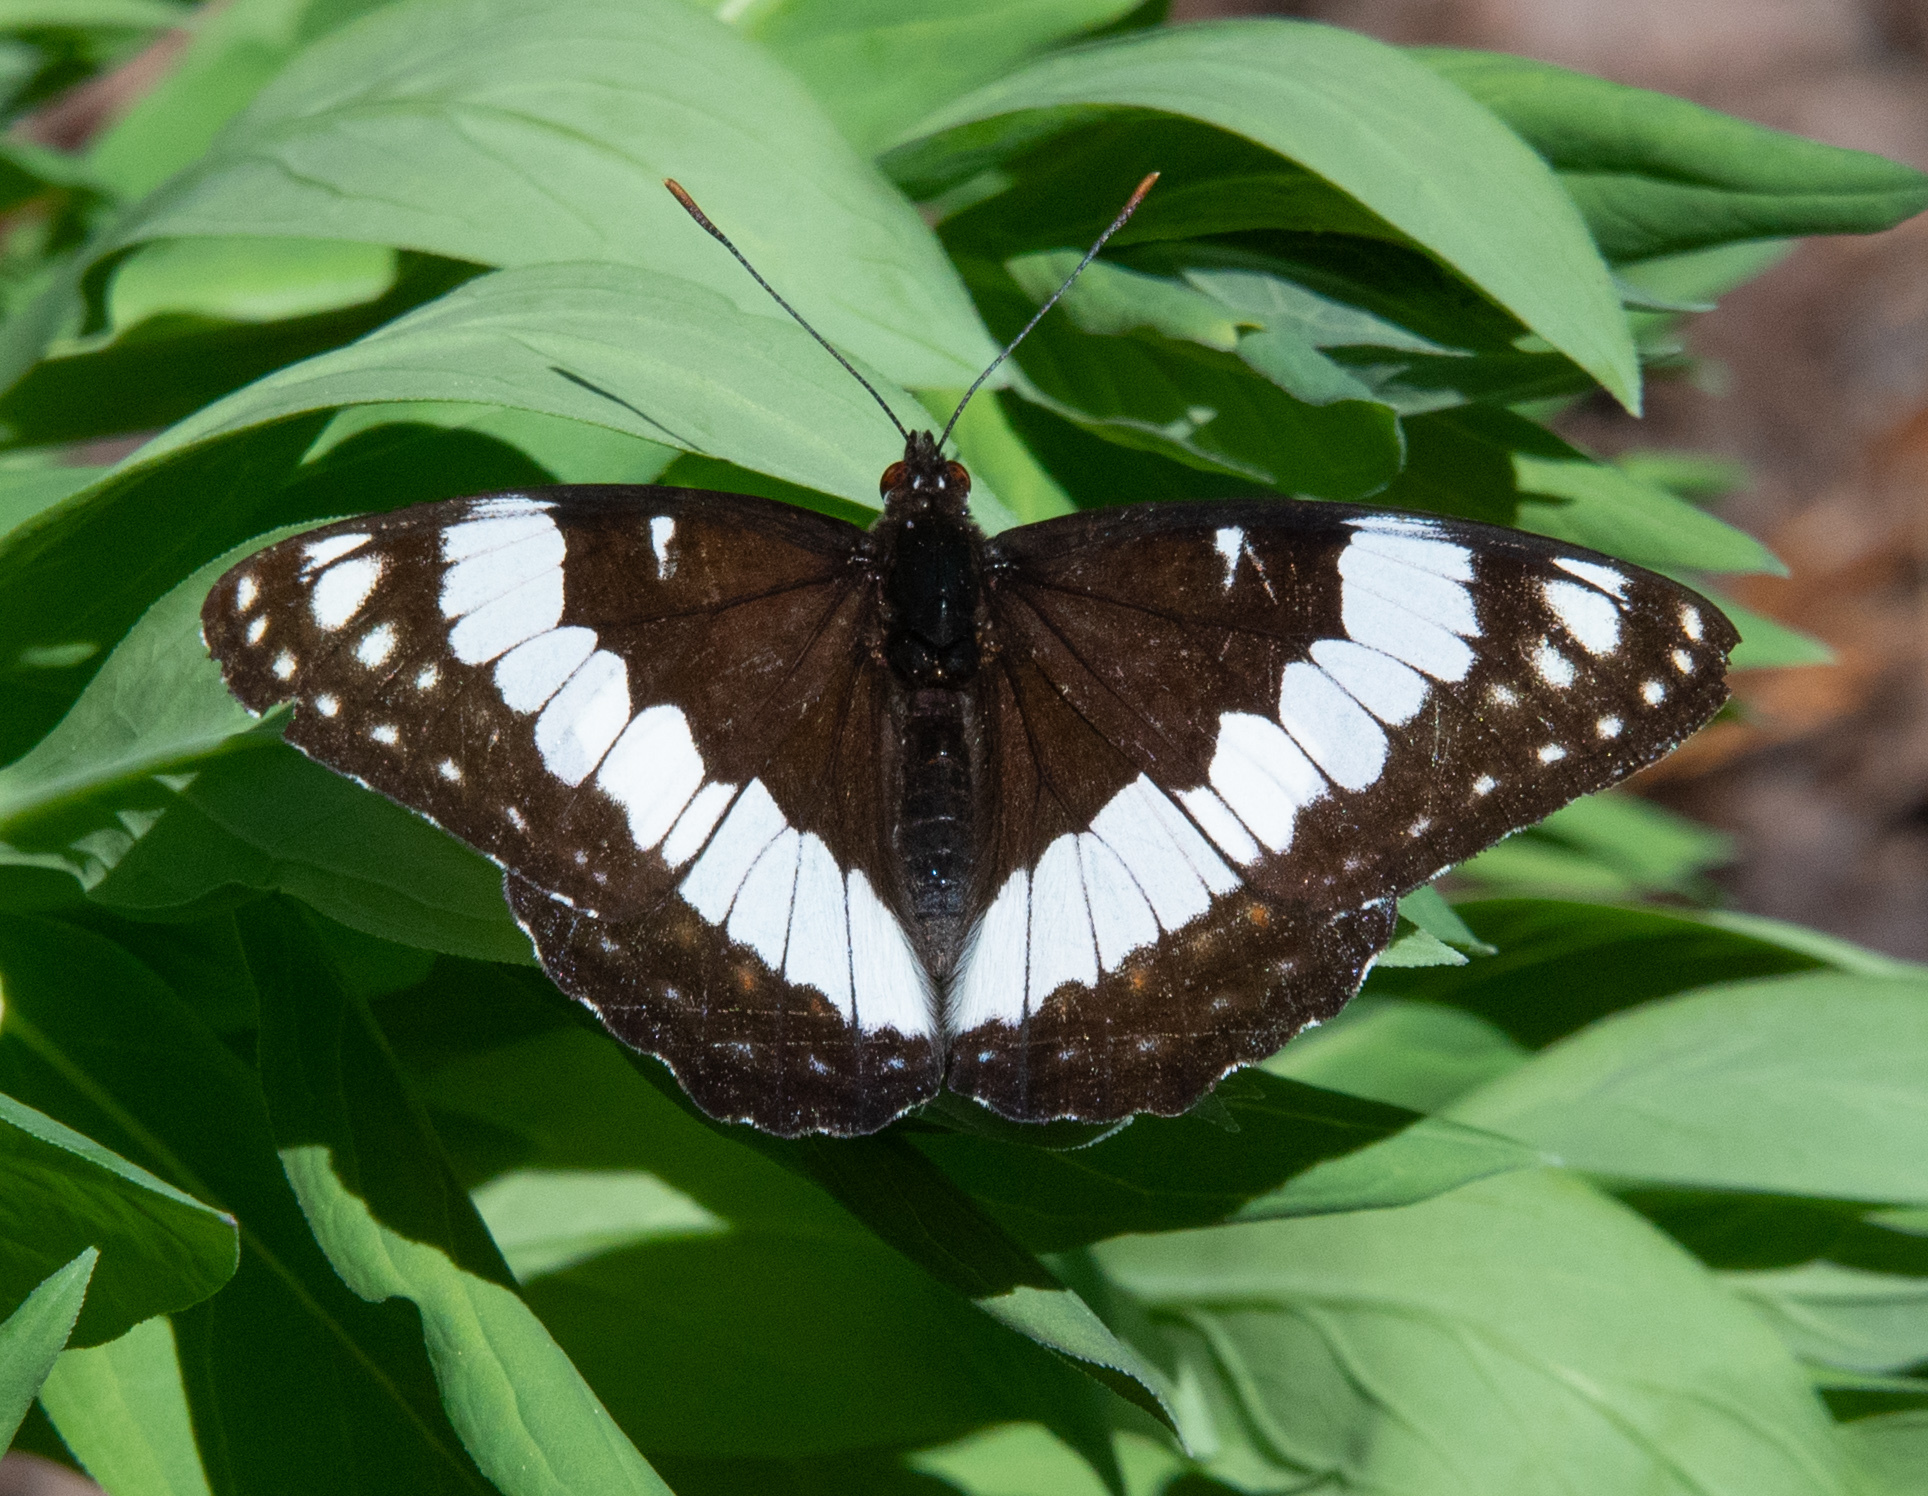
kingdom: Animalia
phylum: Arthropoda
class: Insecta
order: Lepidoptera
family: Nymphalidae
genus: Limenitis
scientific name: Limenitis weidemeyerii
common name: Weidemeyer's admiral
